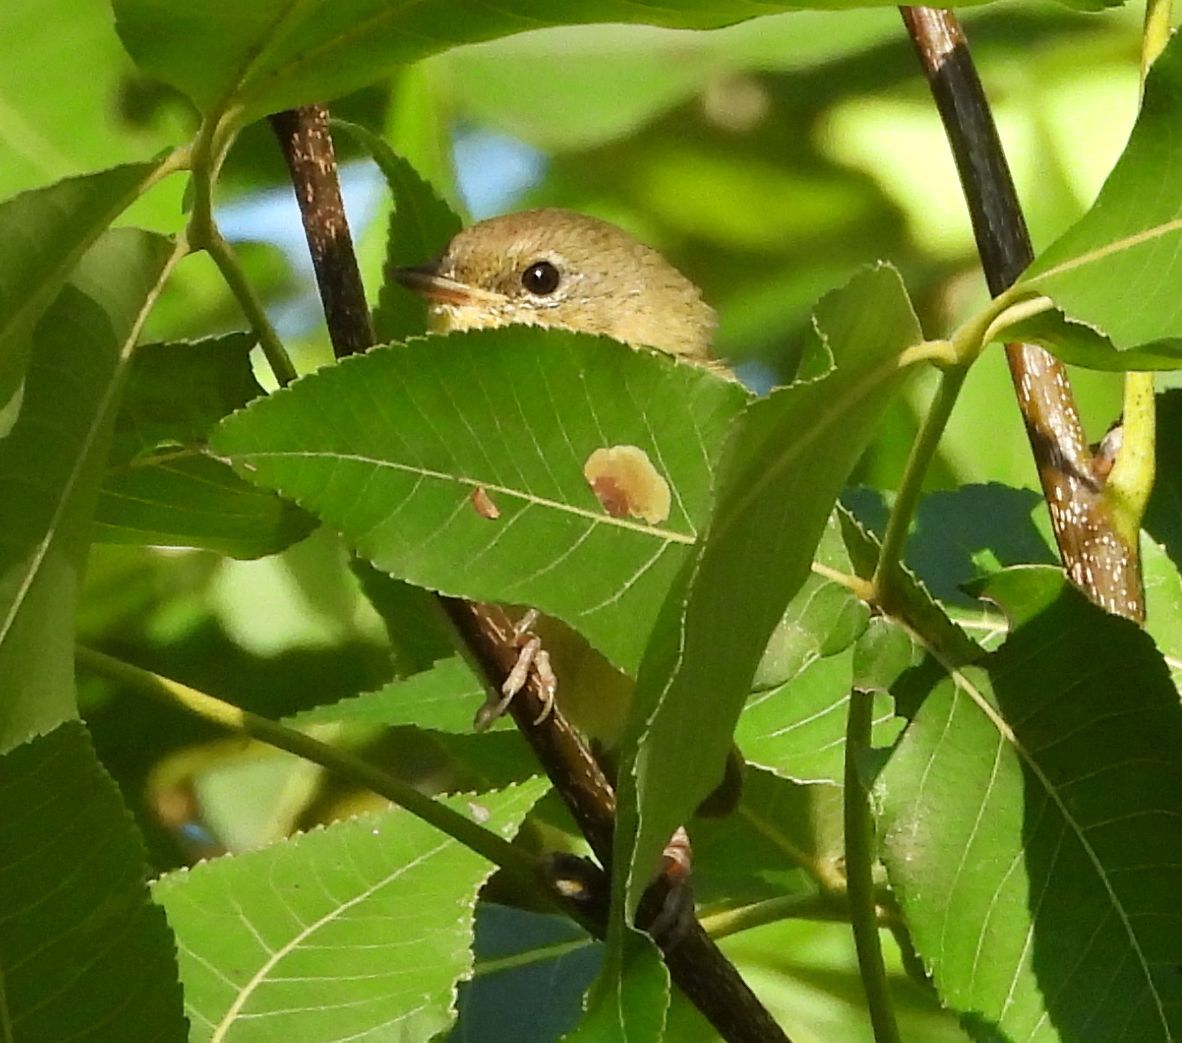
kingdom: Animalia
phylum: Chordata
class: Aves
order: Passeriformes
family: Parulidae
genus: Geothlypis
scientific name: Geothlypis trichas
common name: Common yellowthroat
